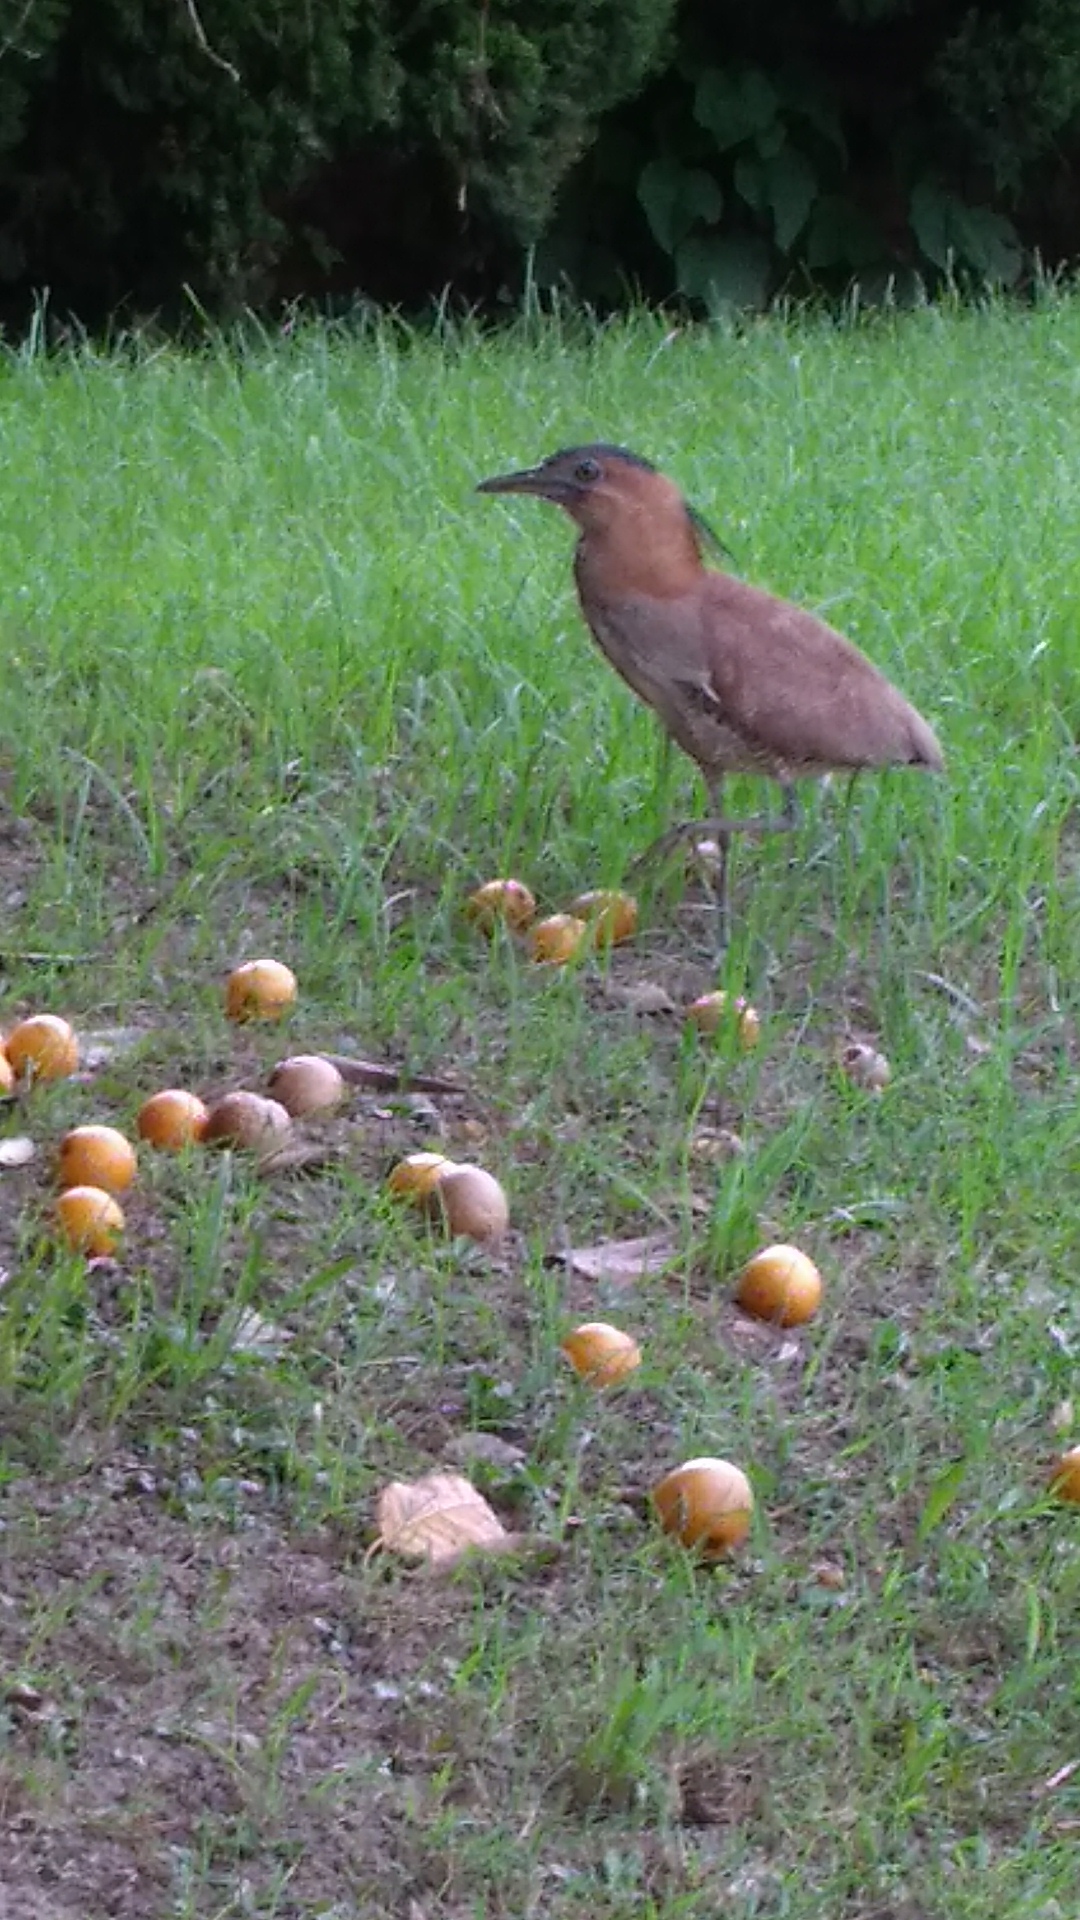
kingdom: Animalia
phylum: Chordata
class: Aves
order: Pelecaniformes
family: Ardeidae
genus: Gorsachius
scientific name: Gorsachius melanolophus
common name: Malayan night heron
